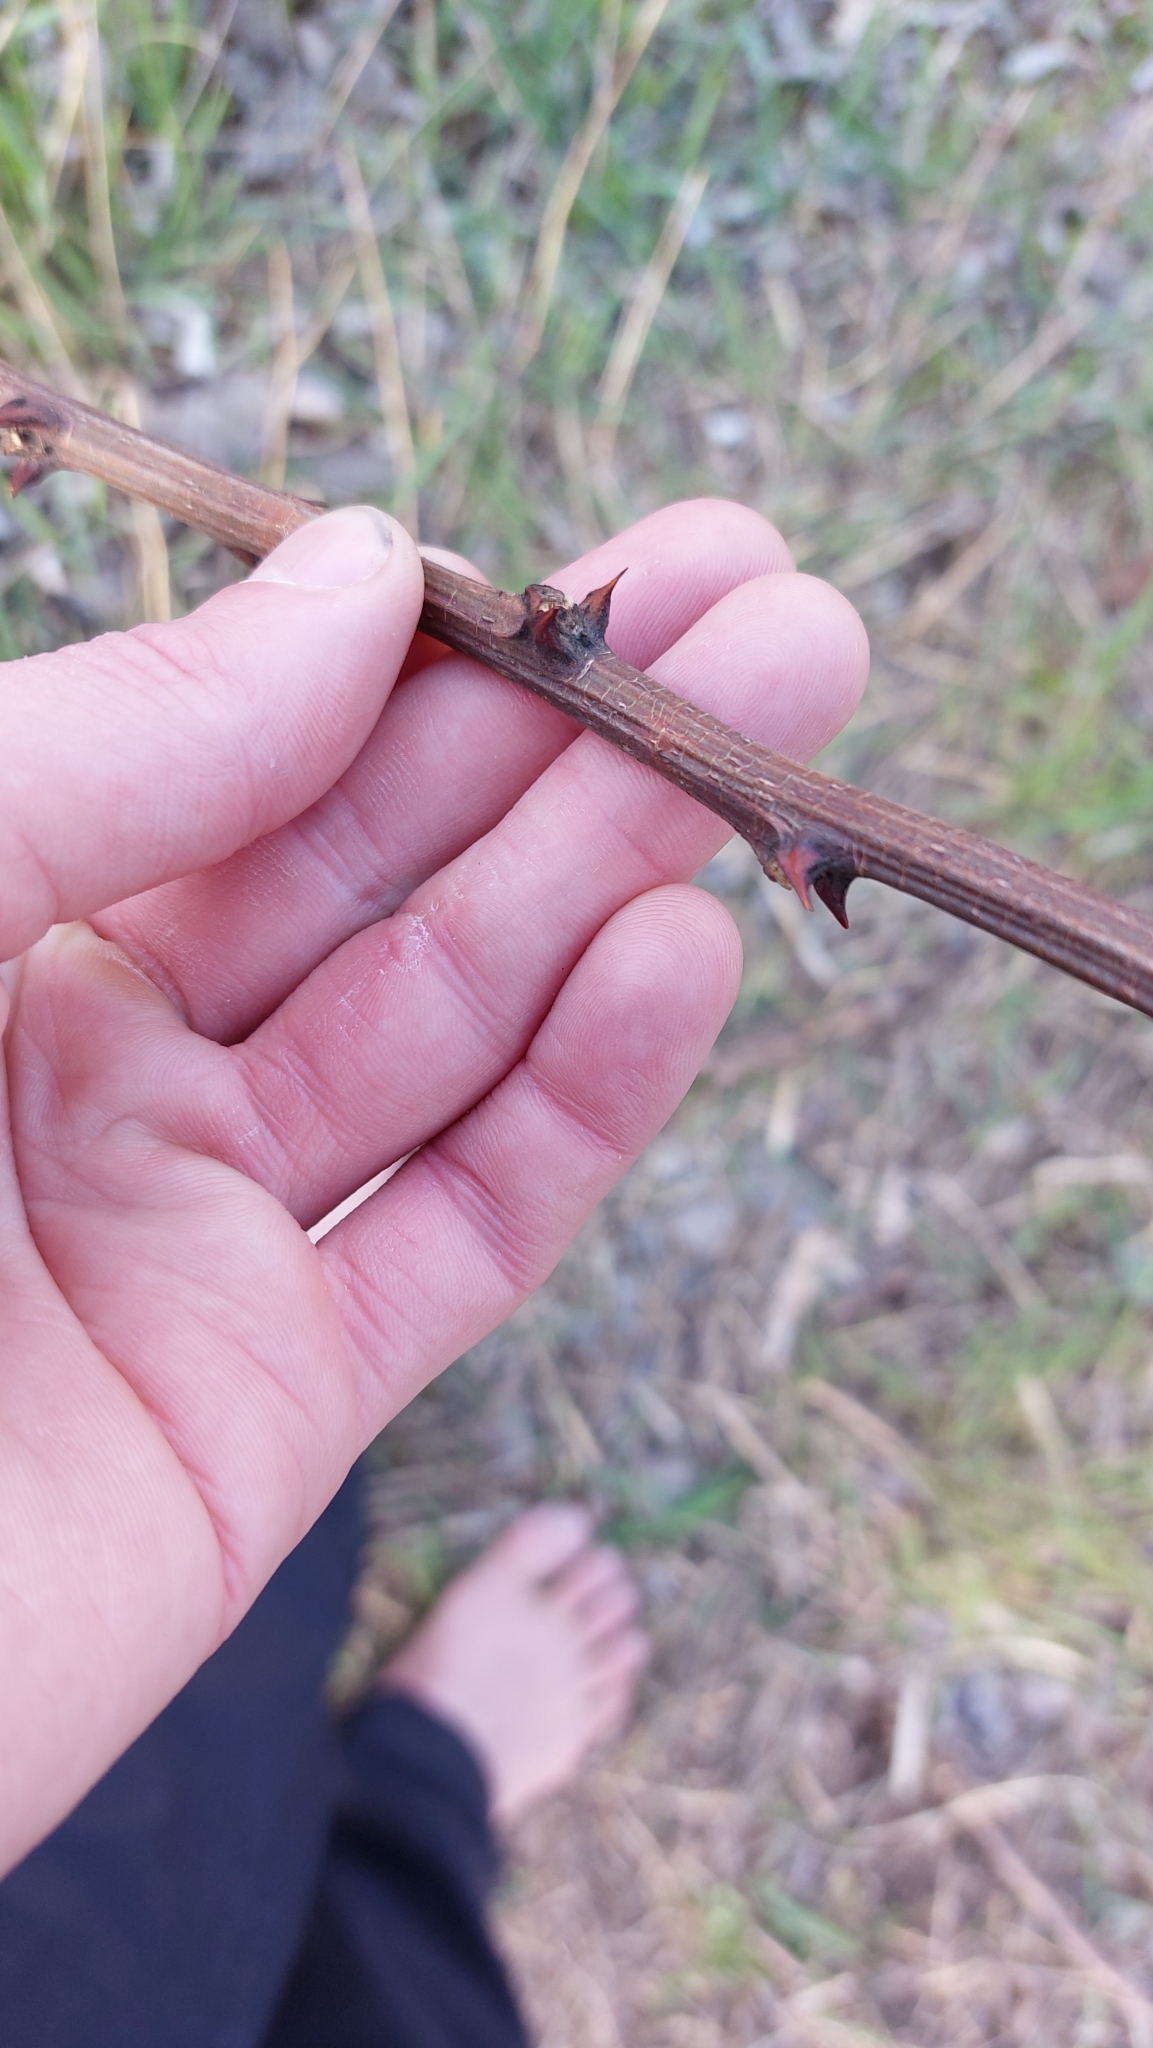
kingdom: Plantae
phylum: Tracheophyta
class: Magnoliopsida
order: Fabales
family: Fabaceae
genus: Robinia
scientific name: Robinia pseudoacacia
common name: Black locust
